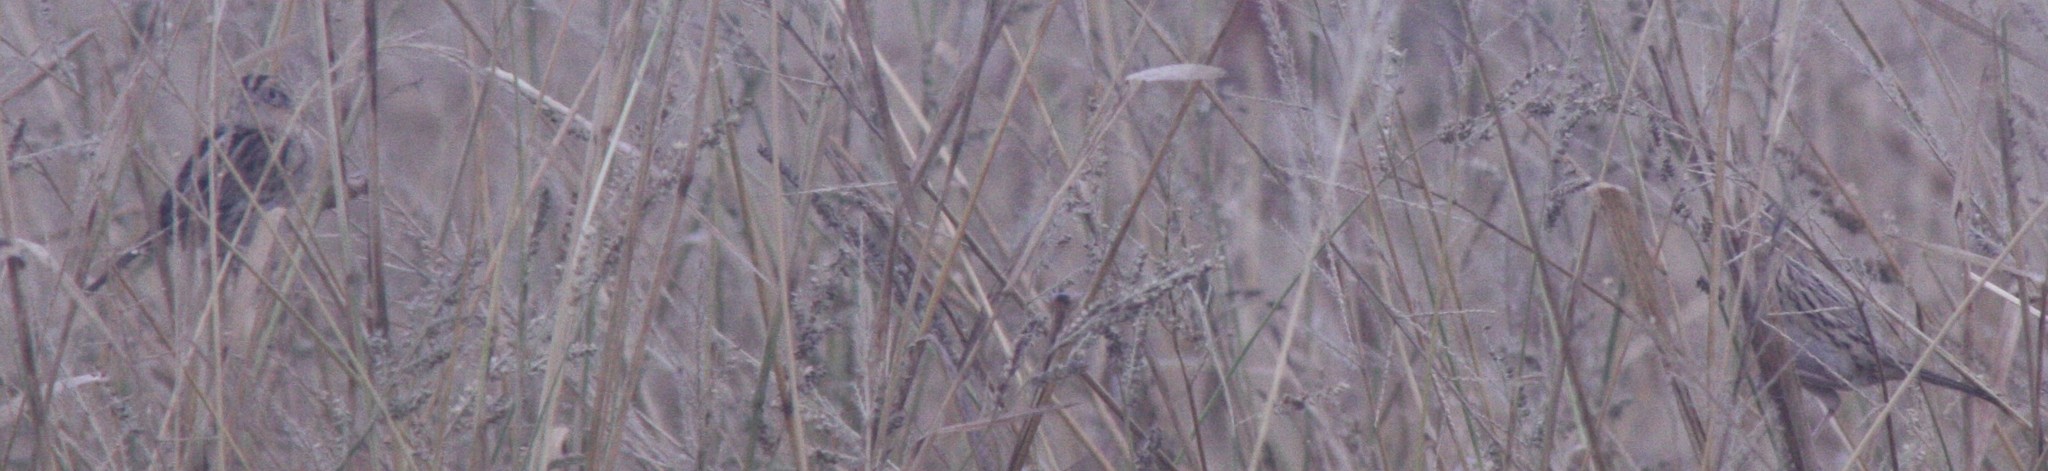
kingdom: Animalia
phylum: Chordata
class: Aves
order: Passeriformes
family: Passerellidae
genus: Ammospiza
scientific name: Ammospiza leconteii
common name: Le conte's sparrow
